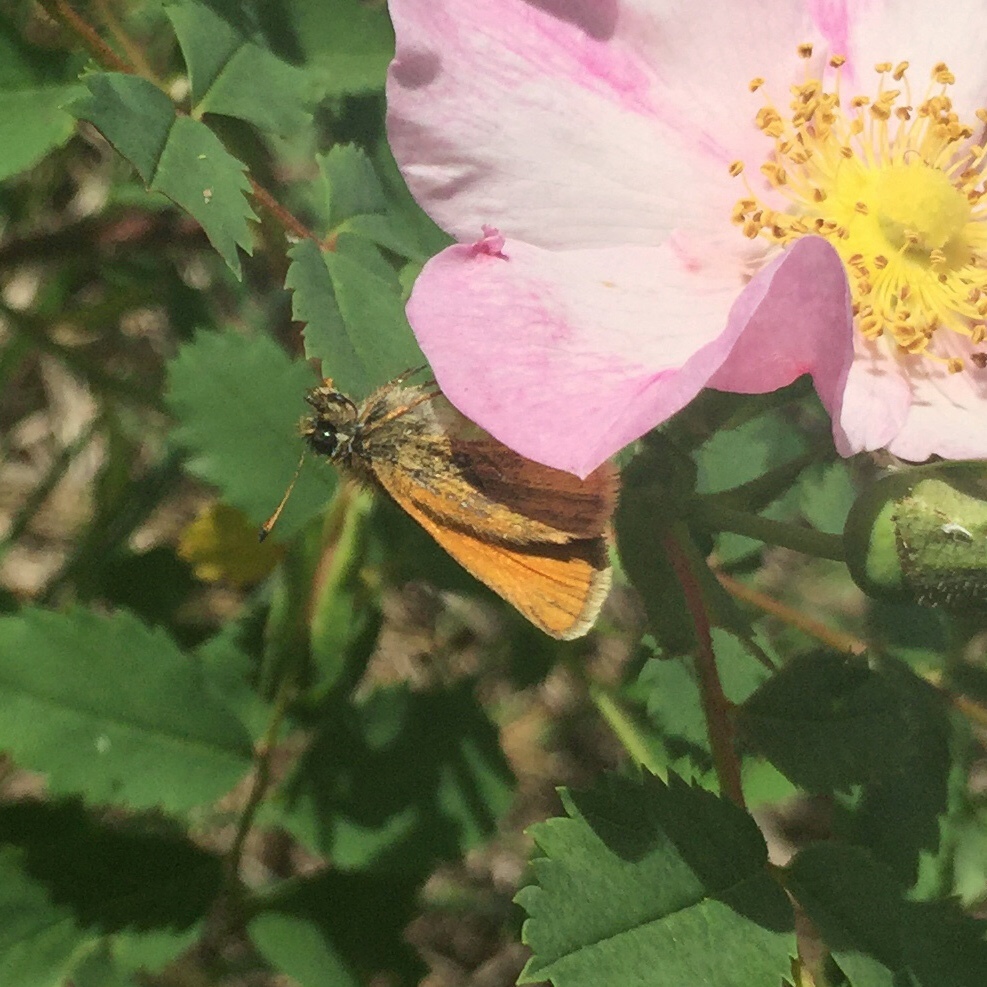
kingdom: Animalia
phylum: Arthropoda
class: Insecta
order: Lepidoptera
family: Hesperiidae
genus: Thymelicus
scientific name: Thymelicus lineola
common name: Essex skipper
